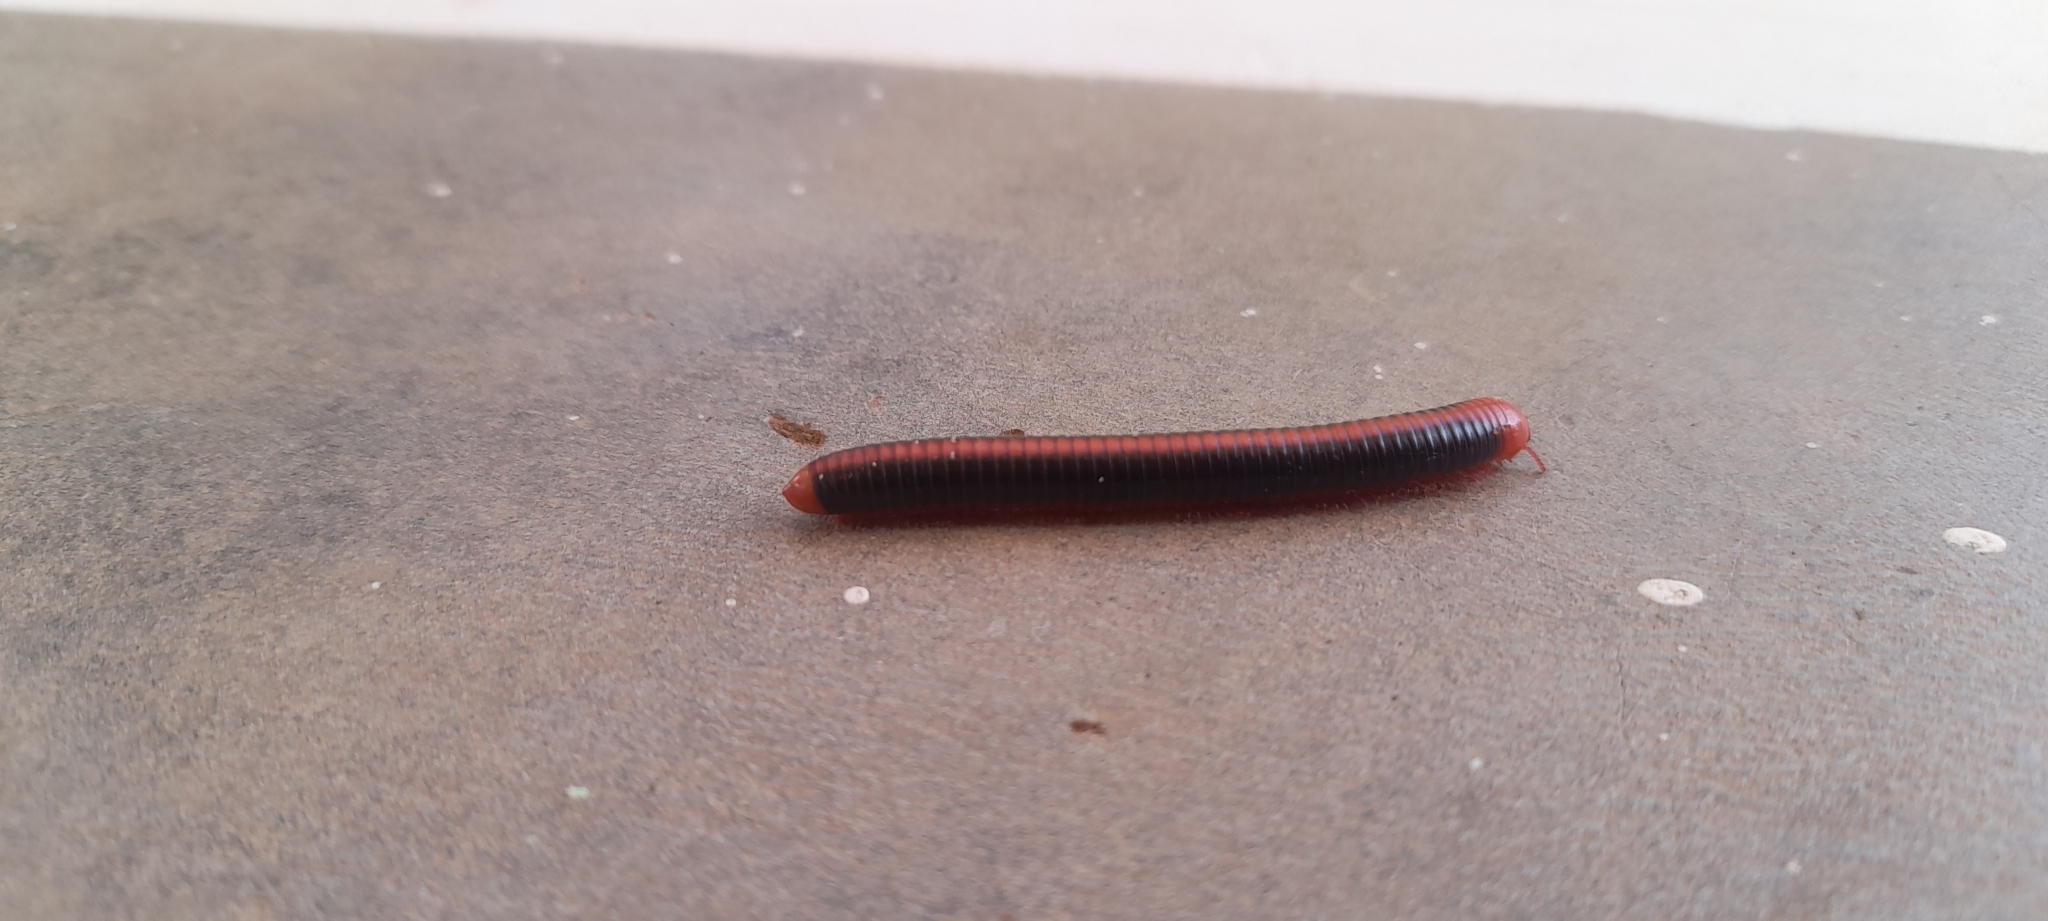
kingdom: Animalia
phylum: Arthropoda
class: Diplopoda
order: Spirobolida
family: Pachybolidae
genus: Xenobolus
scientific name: Xenobolus carnifex
